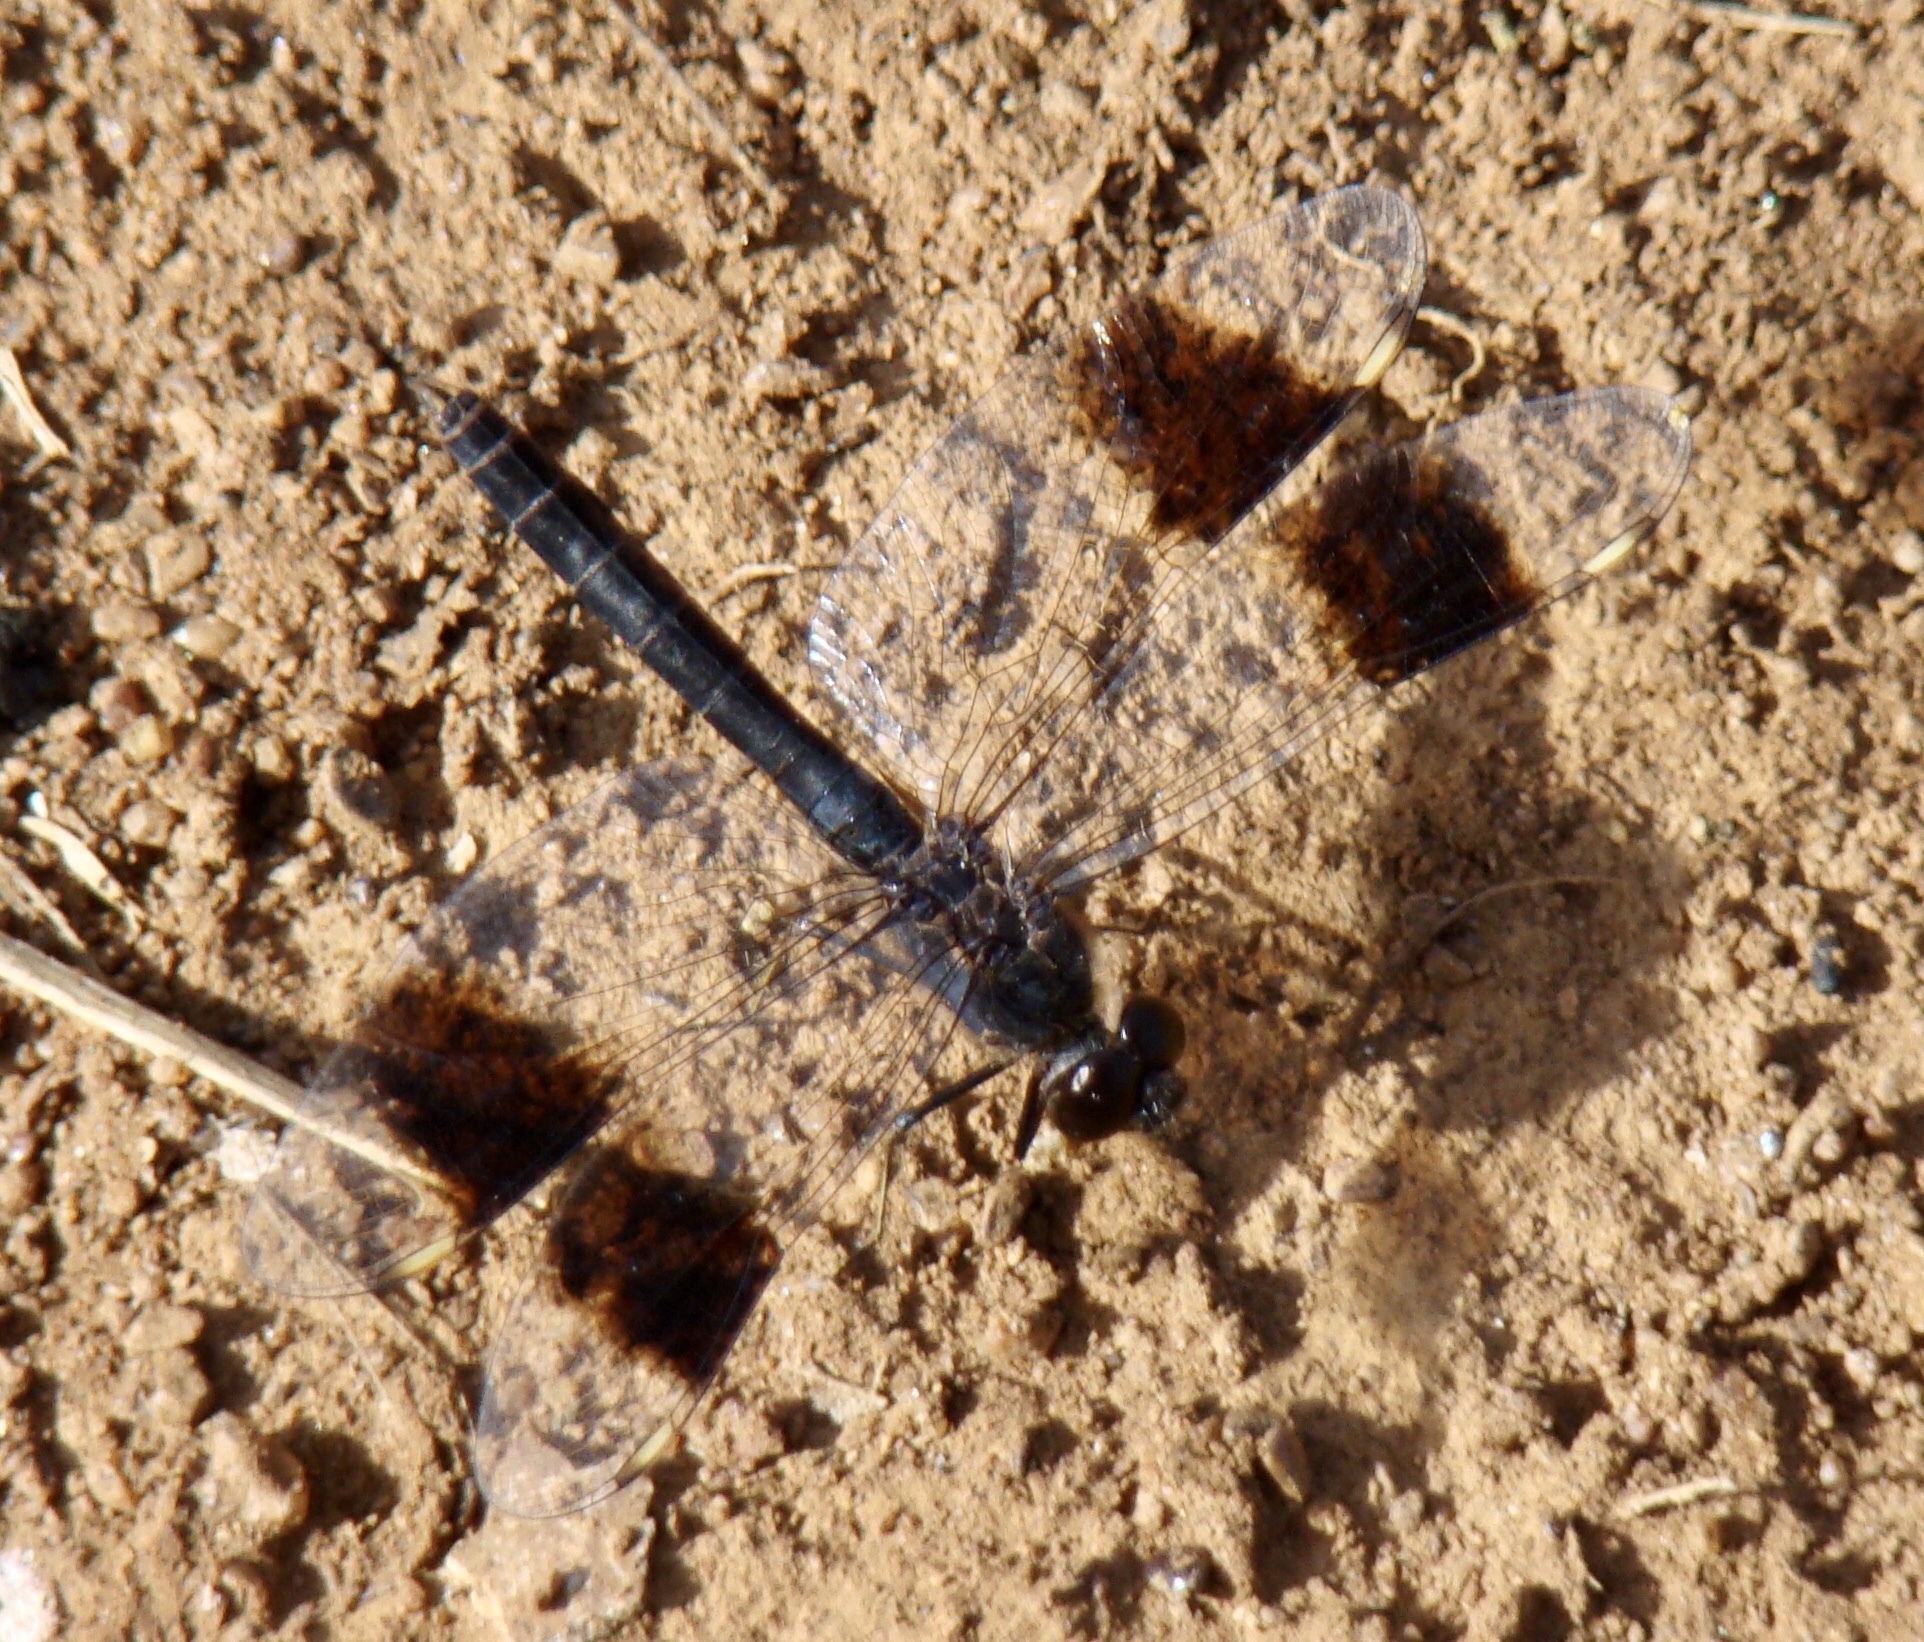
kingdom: Animalia
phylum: Arthropoda
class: Insecta
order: Odonata
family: Libellulidae
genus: Brachythemis
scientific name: Brachythemis impartita
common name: Banded groundling
